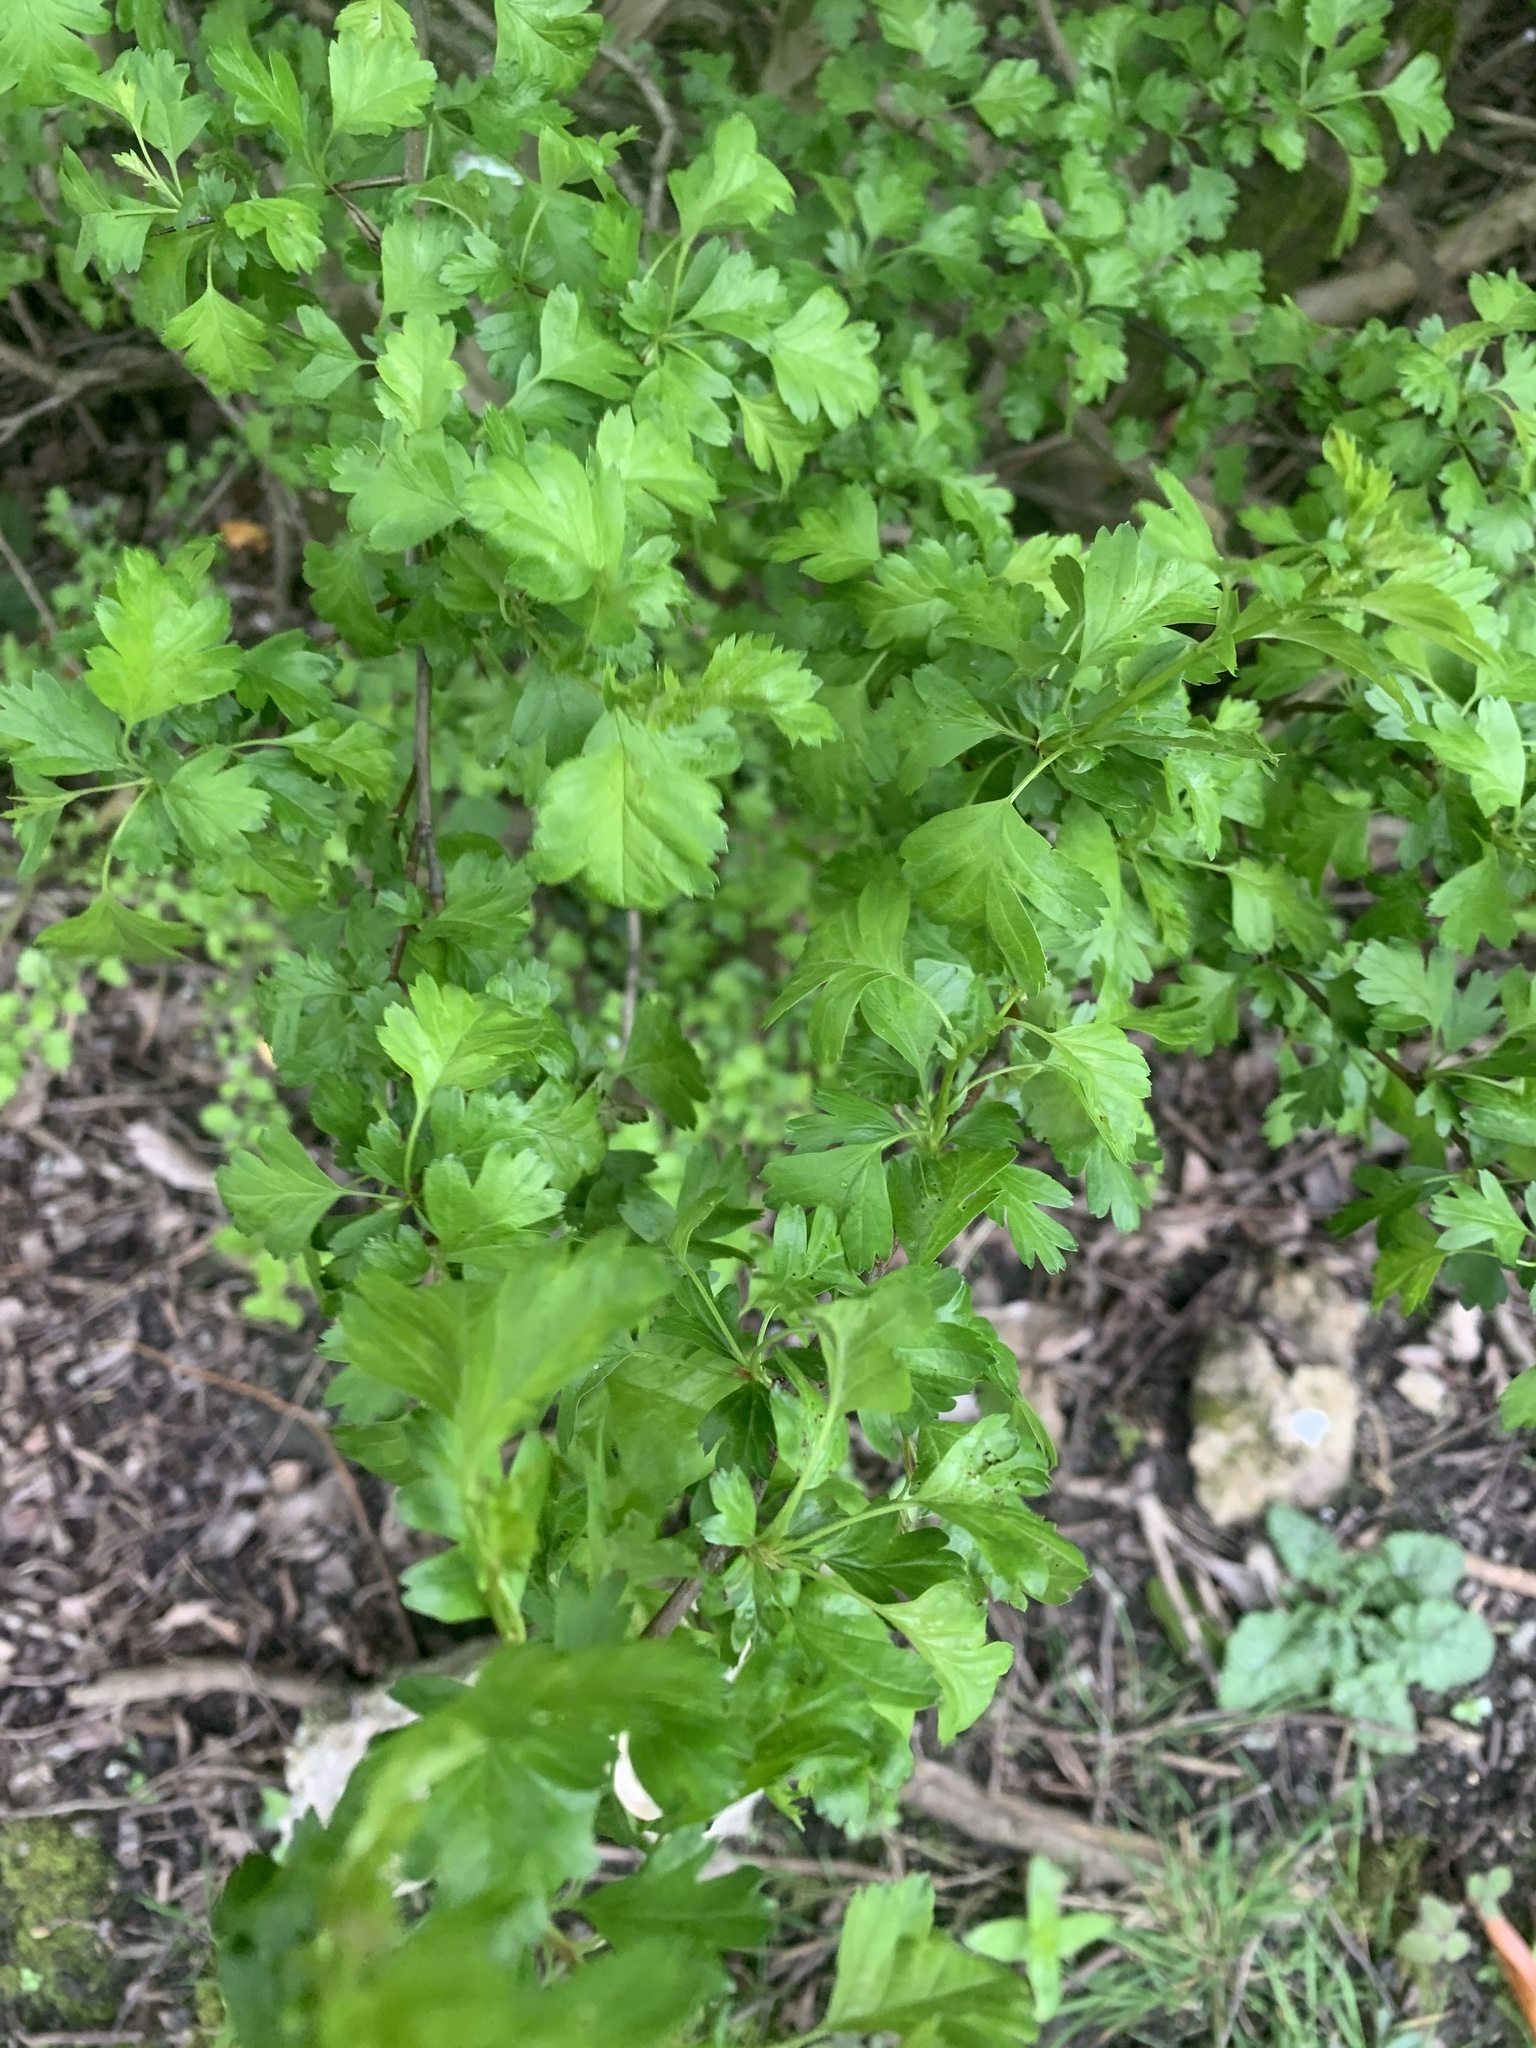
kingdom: Plantae
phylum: Tracheophyta
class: Magnoliopsida
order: Rosales
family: Rosaceae
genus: Crataegus
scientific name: Crataegus monogyna
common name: Hawthorn
